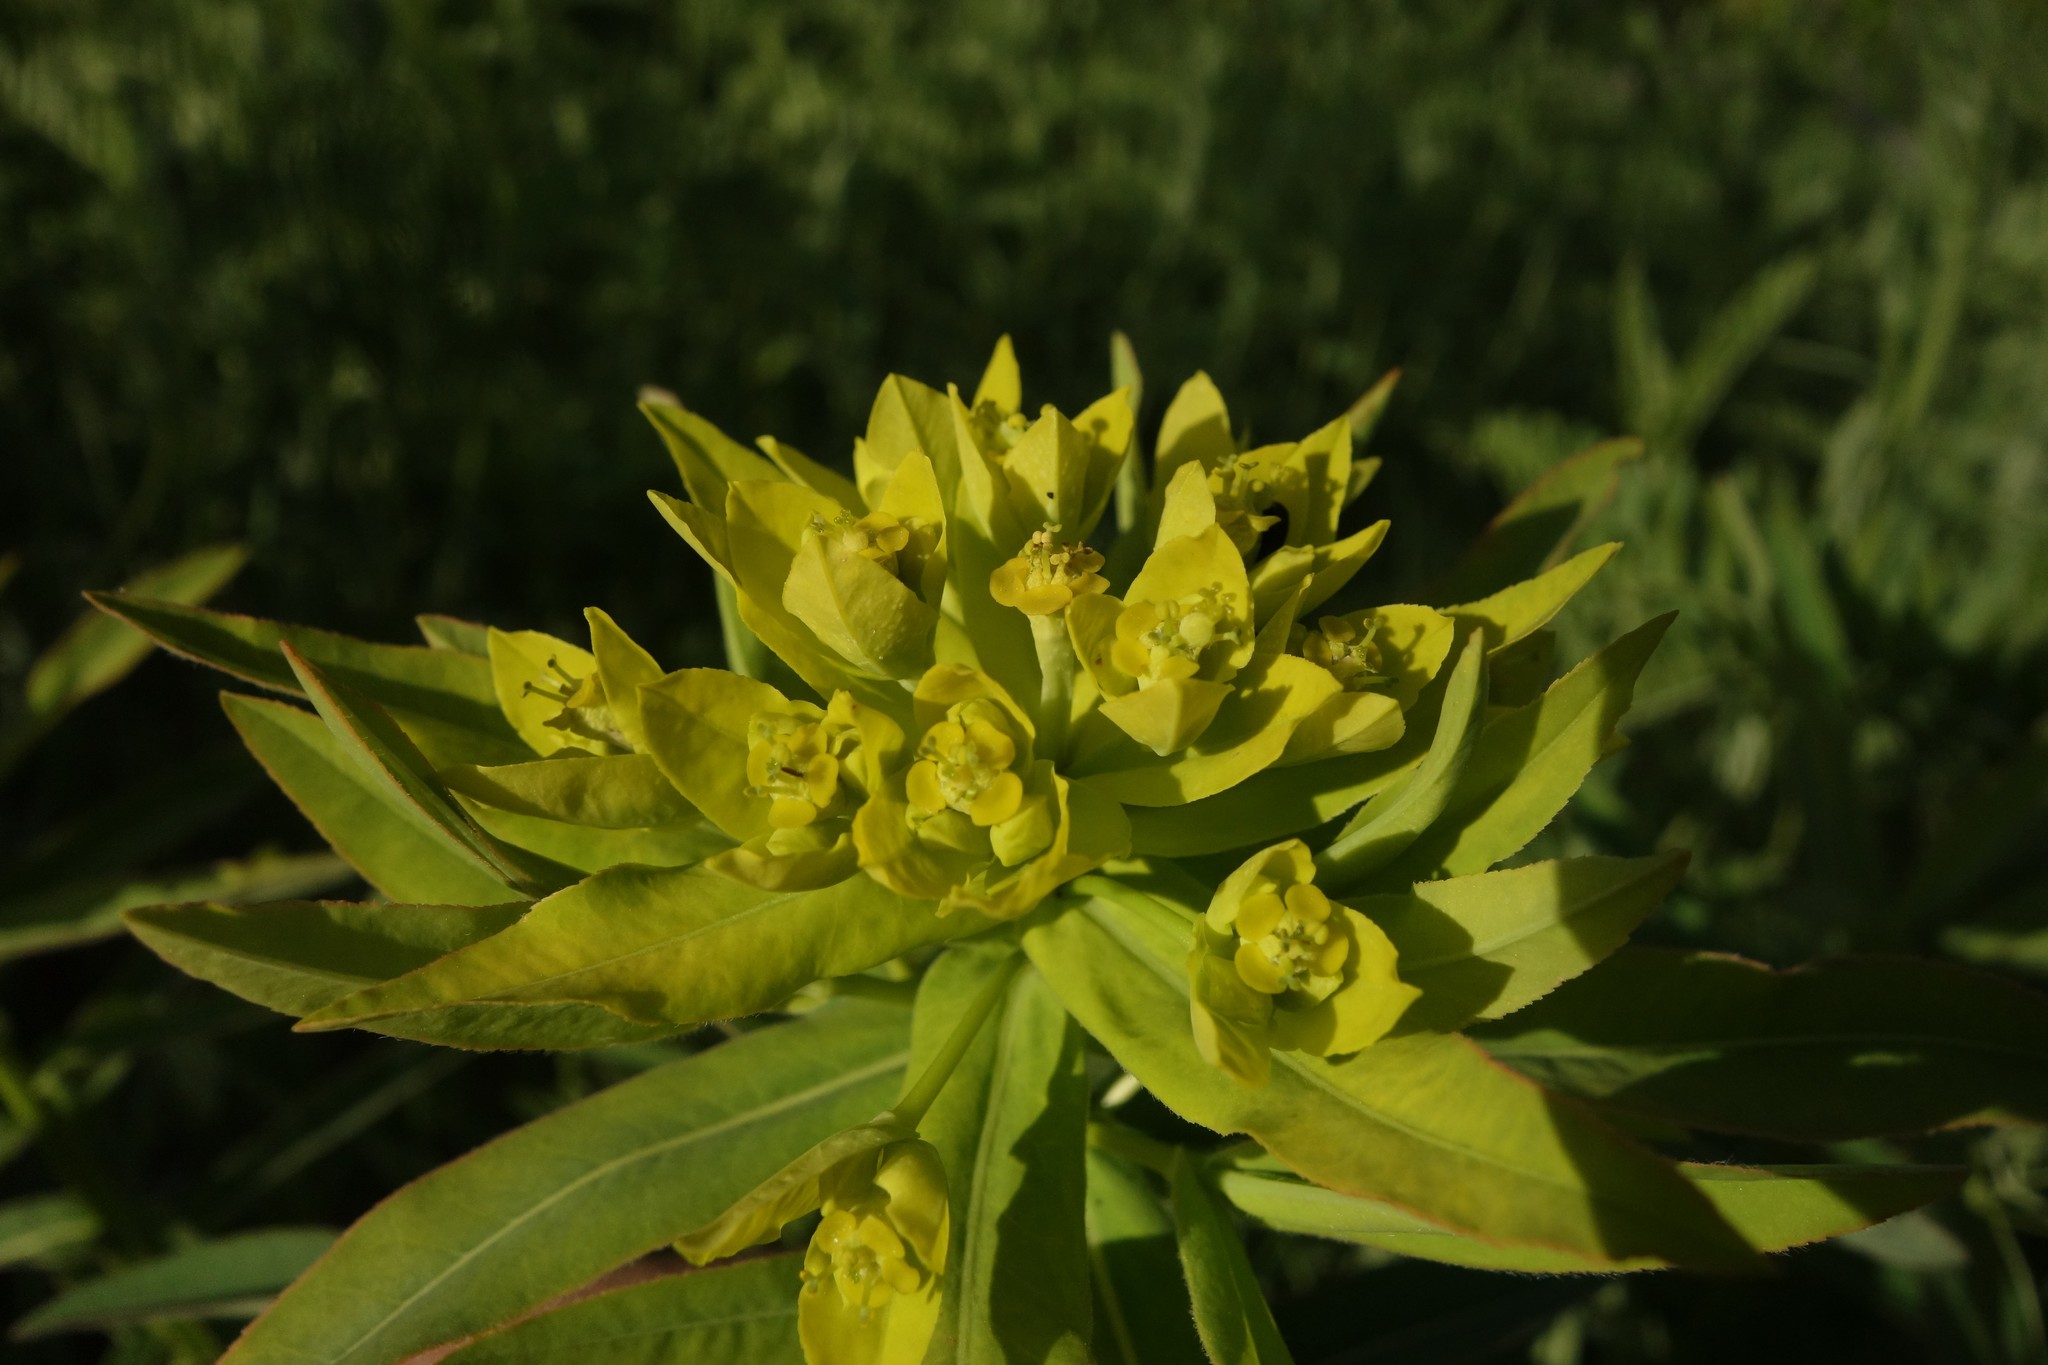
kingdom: Plantae
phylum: Tracheophyta
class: Magnoliopsida
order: Malpighiales
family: Euphorbiaceae
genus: Euphorbia
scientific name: Euphorbia semivillosa
